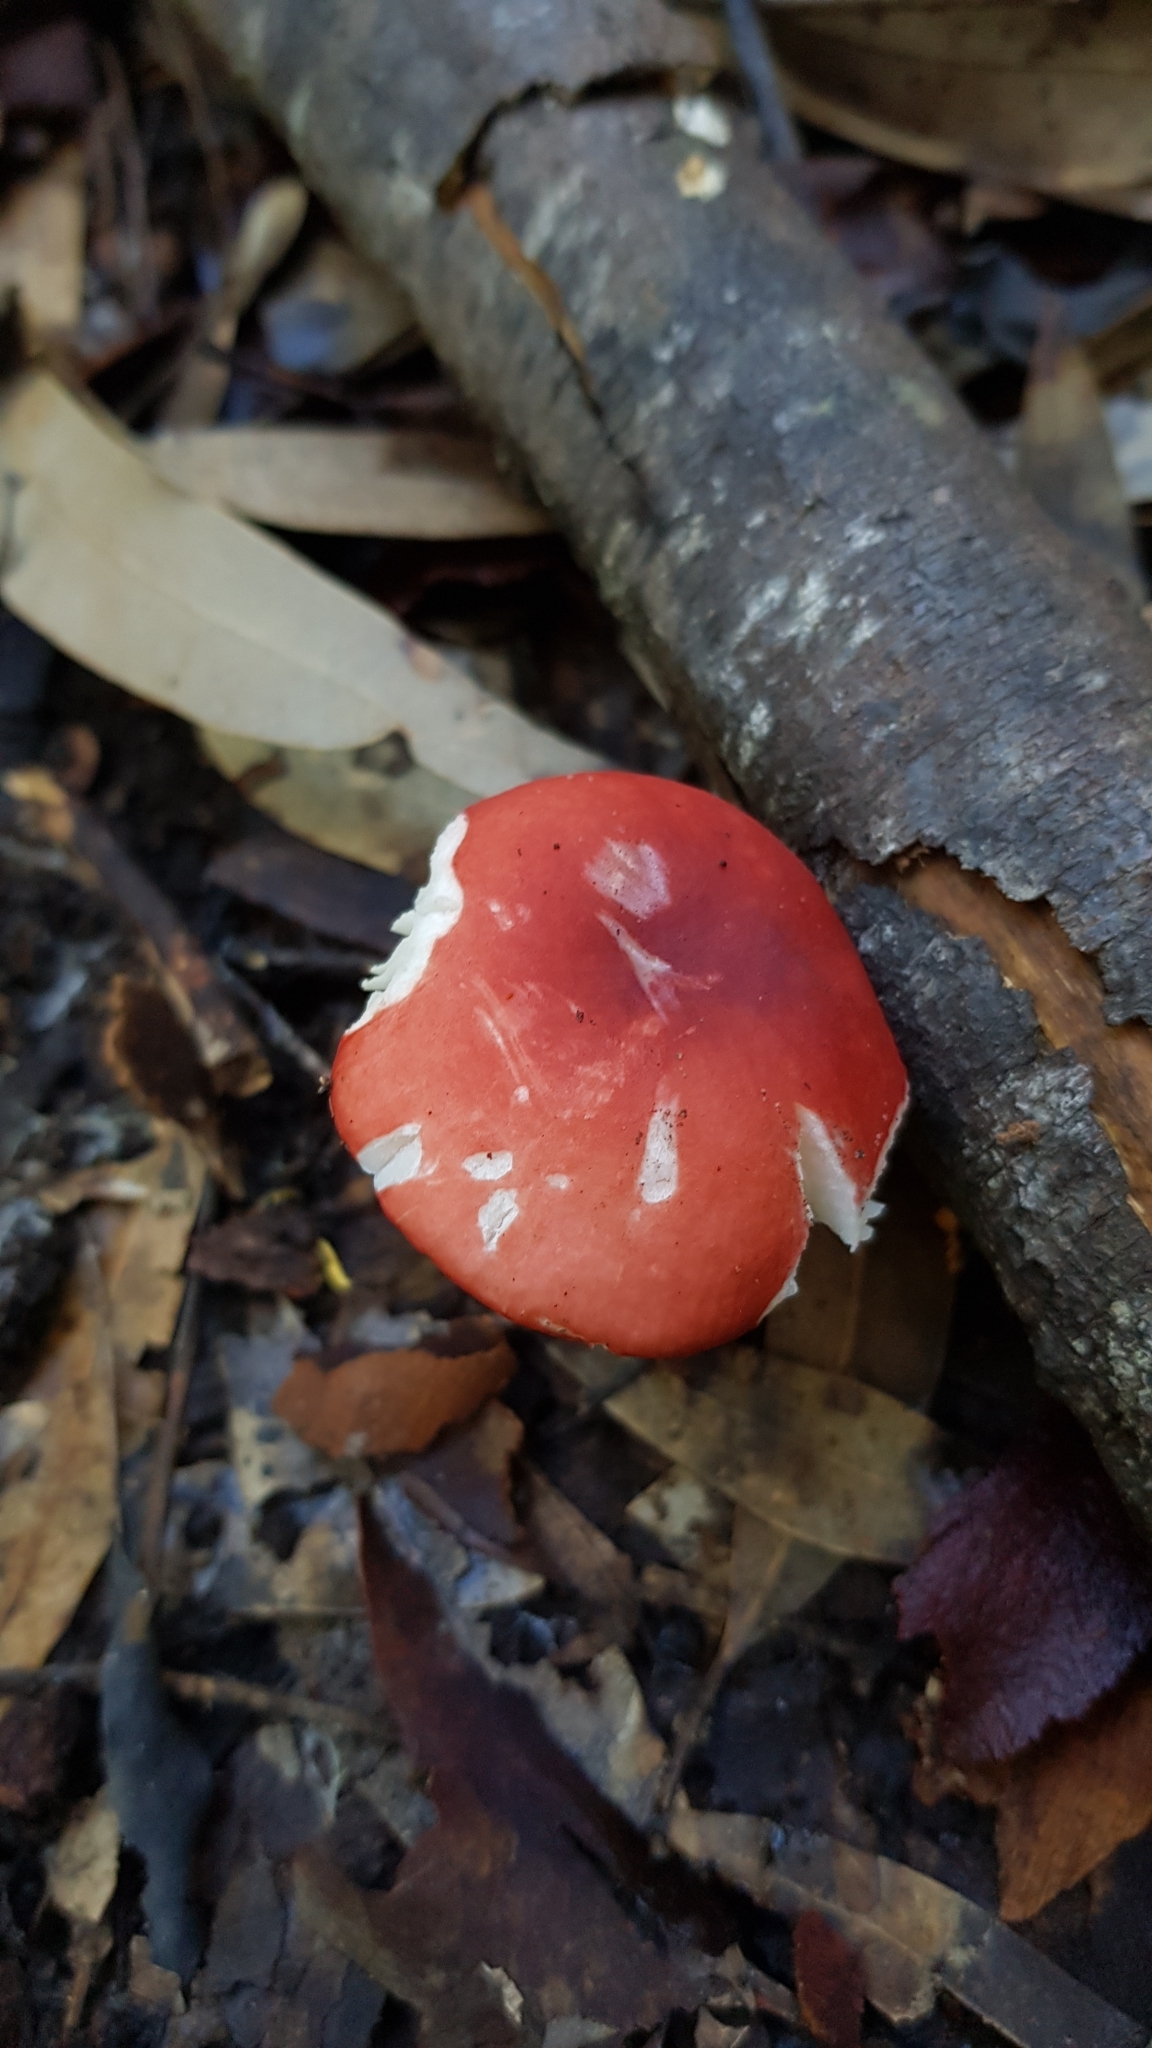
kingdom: Fungi
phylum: Basidiomycota
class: Agaricomycetes
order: Russulales
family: Russulaceae
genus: Russula
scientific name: Russula persanguinea
